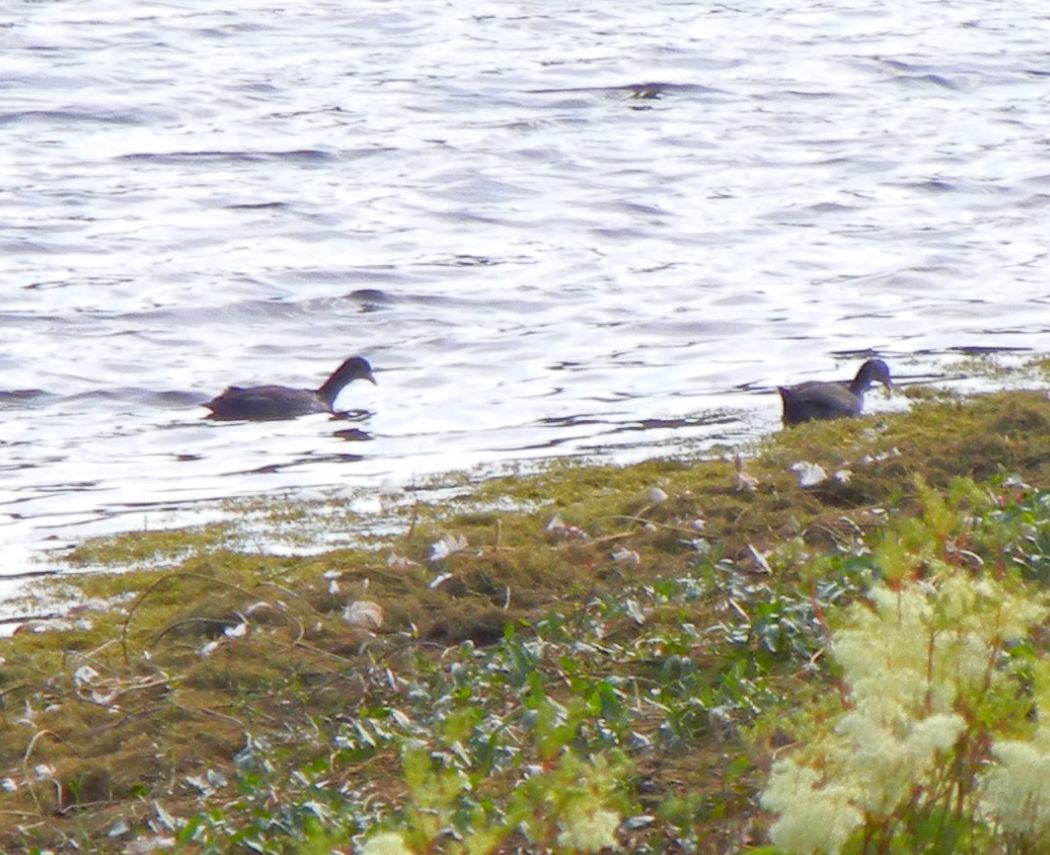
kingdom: Animalia
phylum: Chordata
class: Aves
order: Gruiformes
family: Rallidae
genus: Fulica
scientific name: Fulica atra
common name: Eurasian coot
